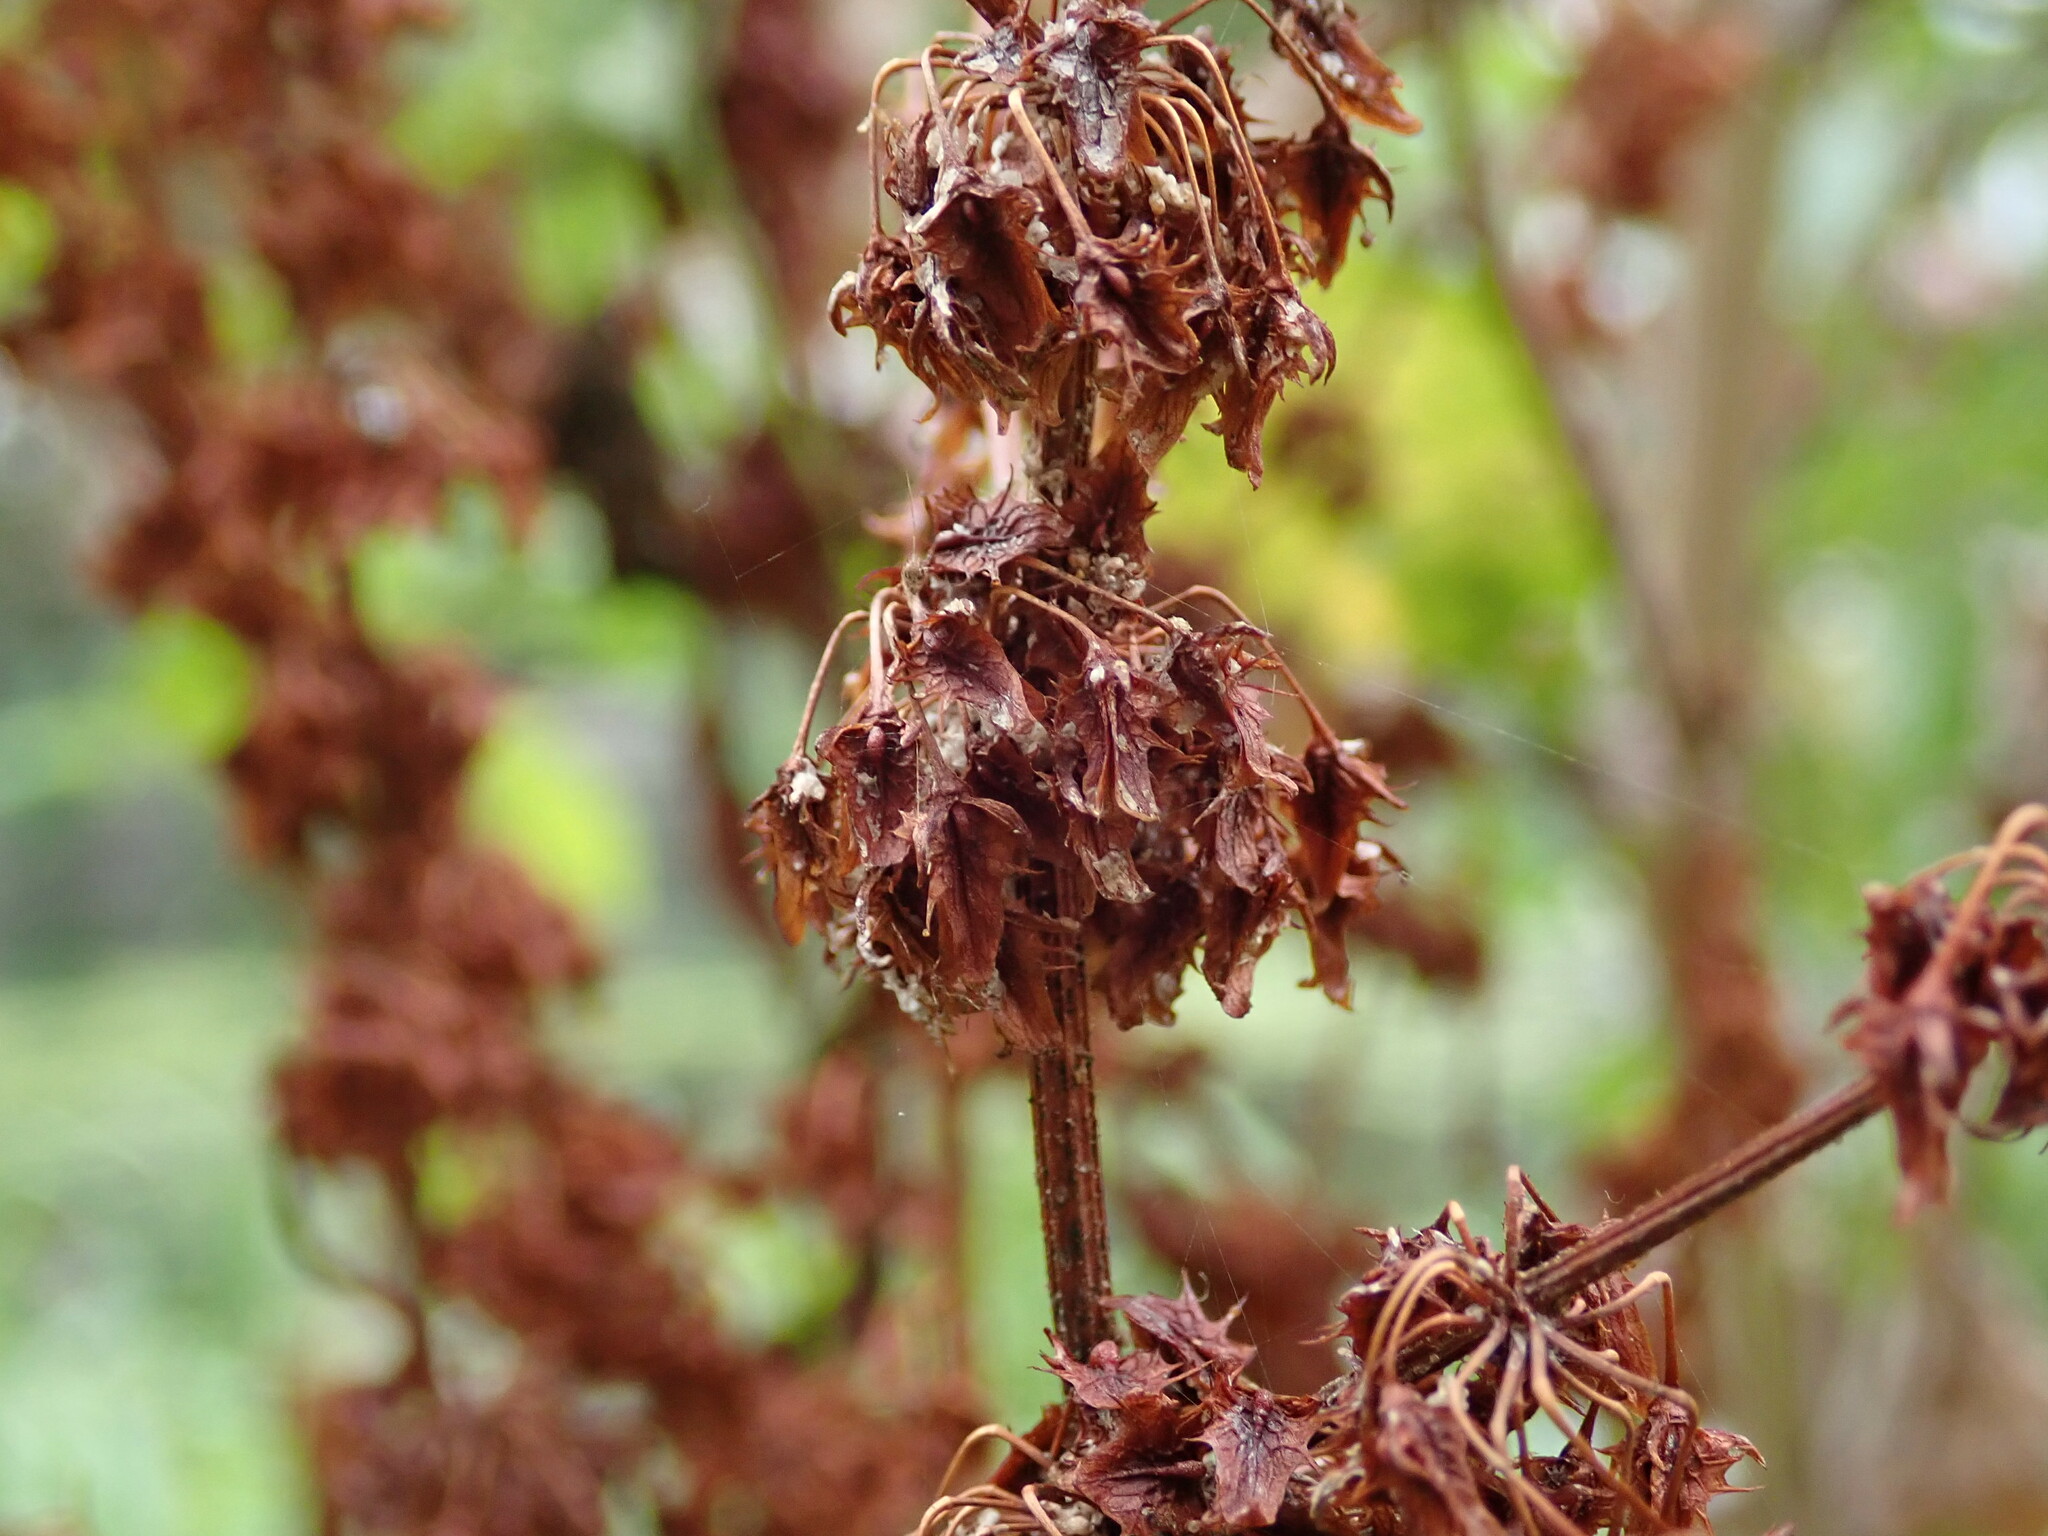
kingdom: Plantae
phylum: Tracheophyta
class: Magnoliopsida
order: Caryophyllales
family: Polygonaceae
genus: Rumex
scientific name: Rumex obtusifolius
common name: Bitter dock
